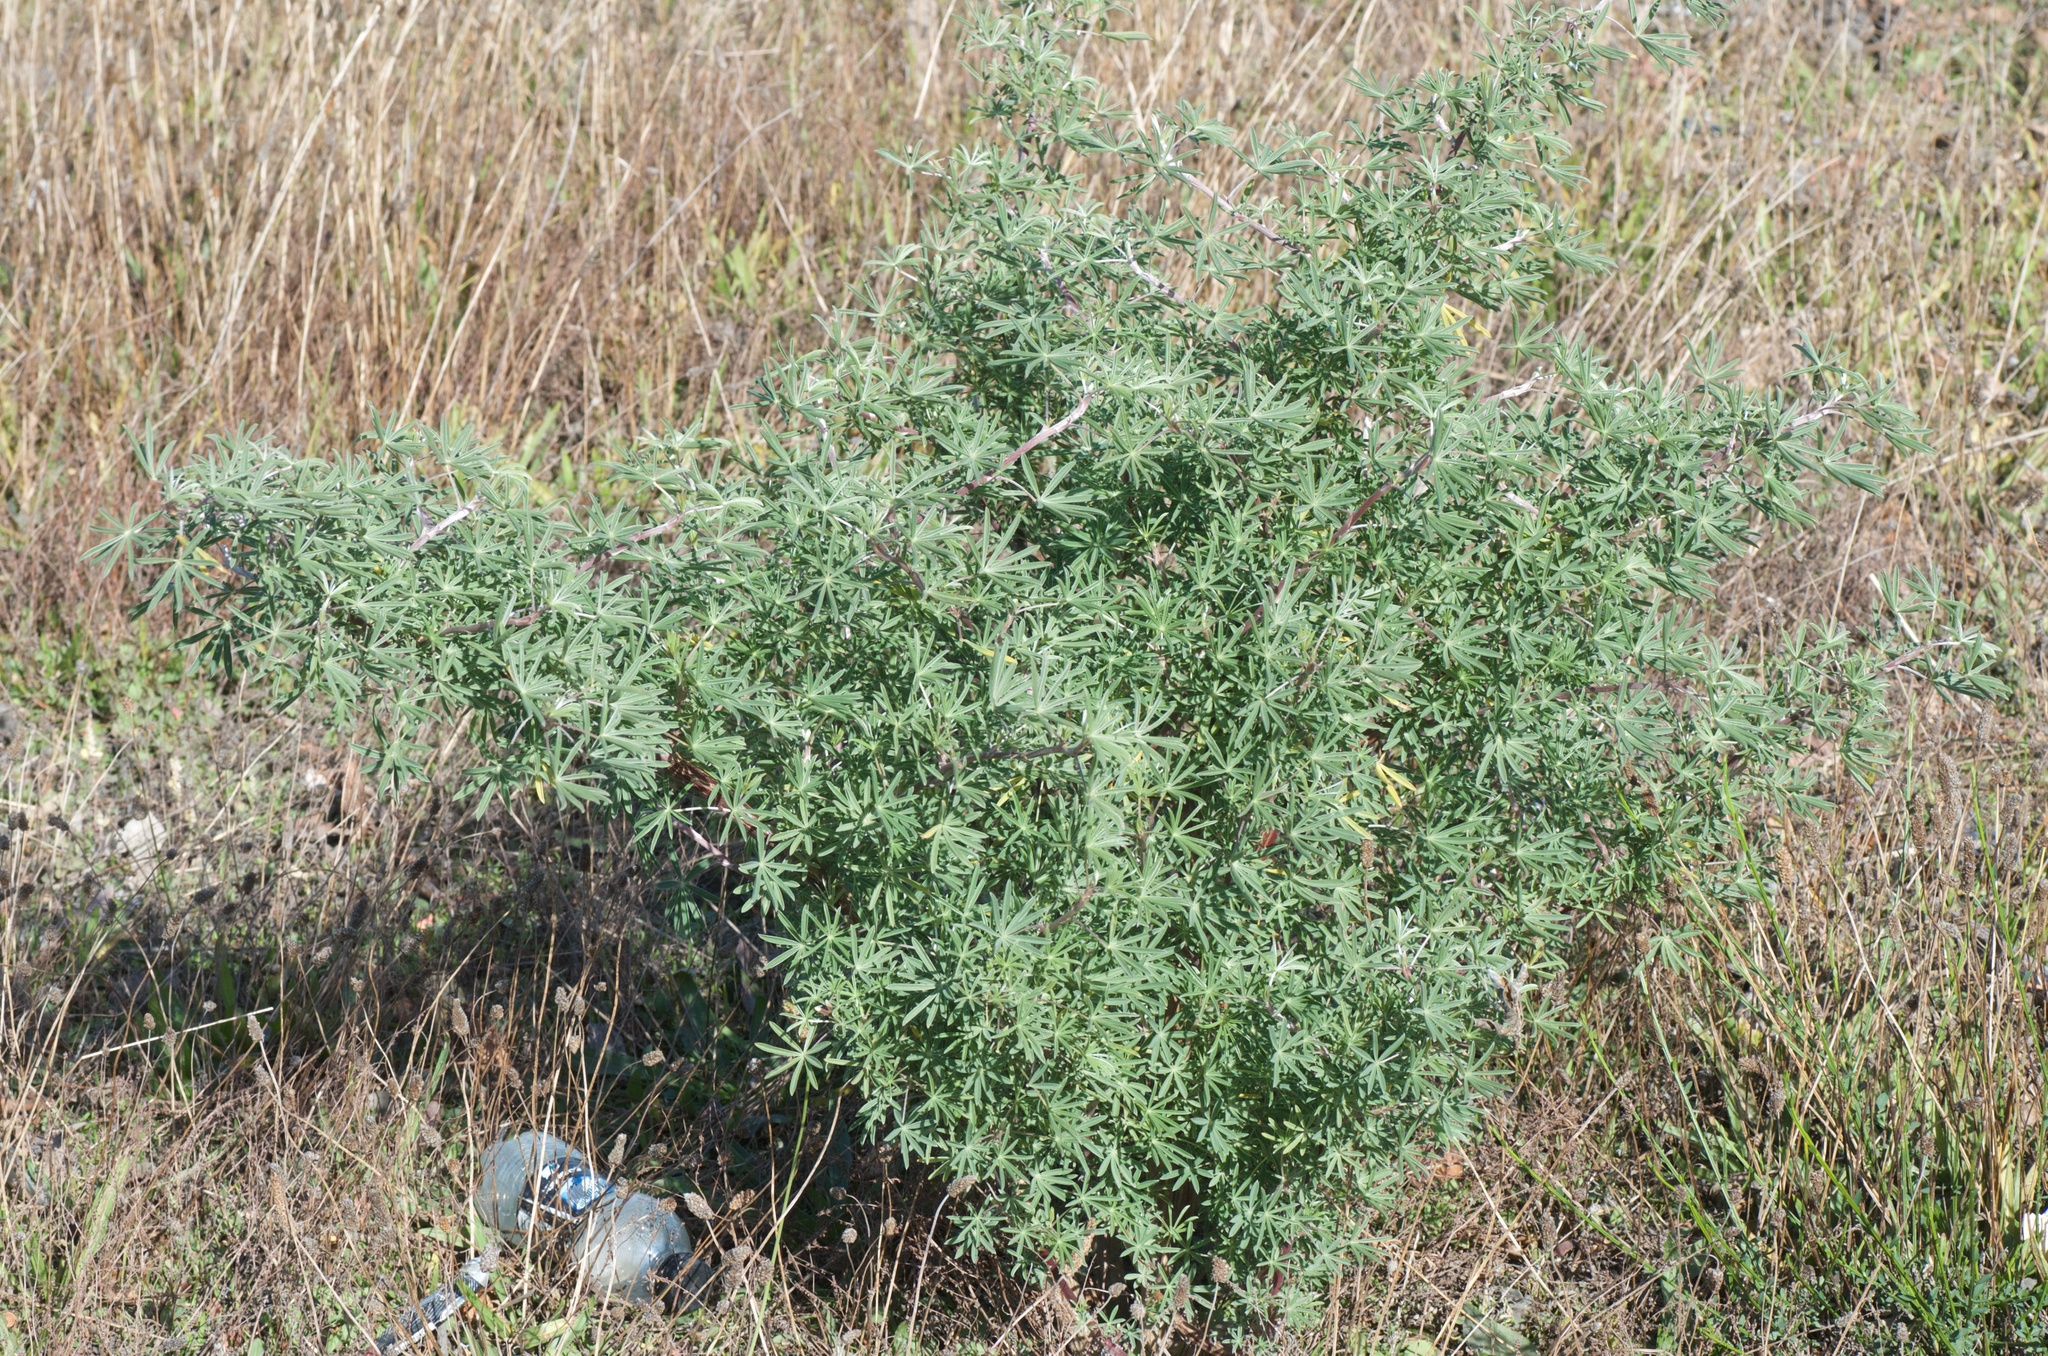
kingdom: Plantae
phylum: Tracheophyta
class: Magnoliopsida
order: Fabales
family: Fabaceae
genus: Lupinus
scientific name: Lupinus arboreus
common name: Yellow bush lupine
